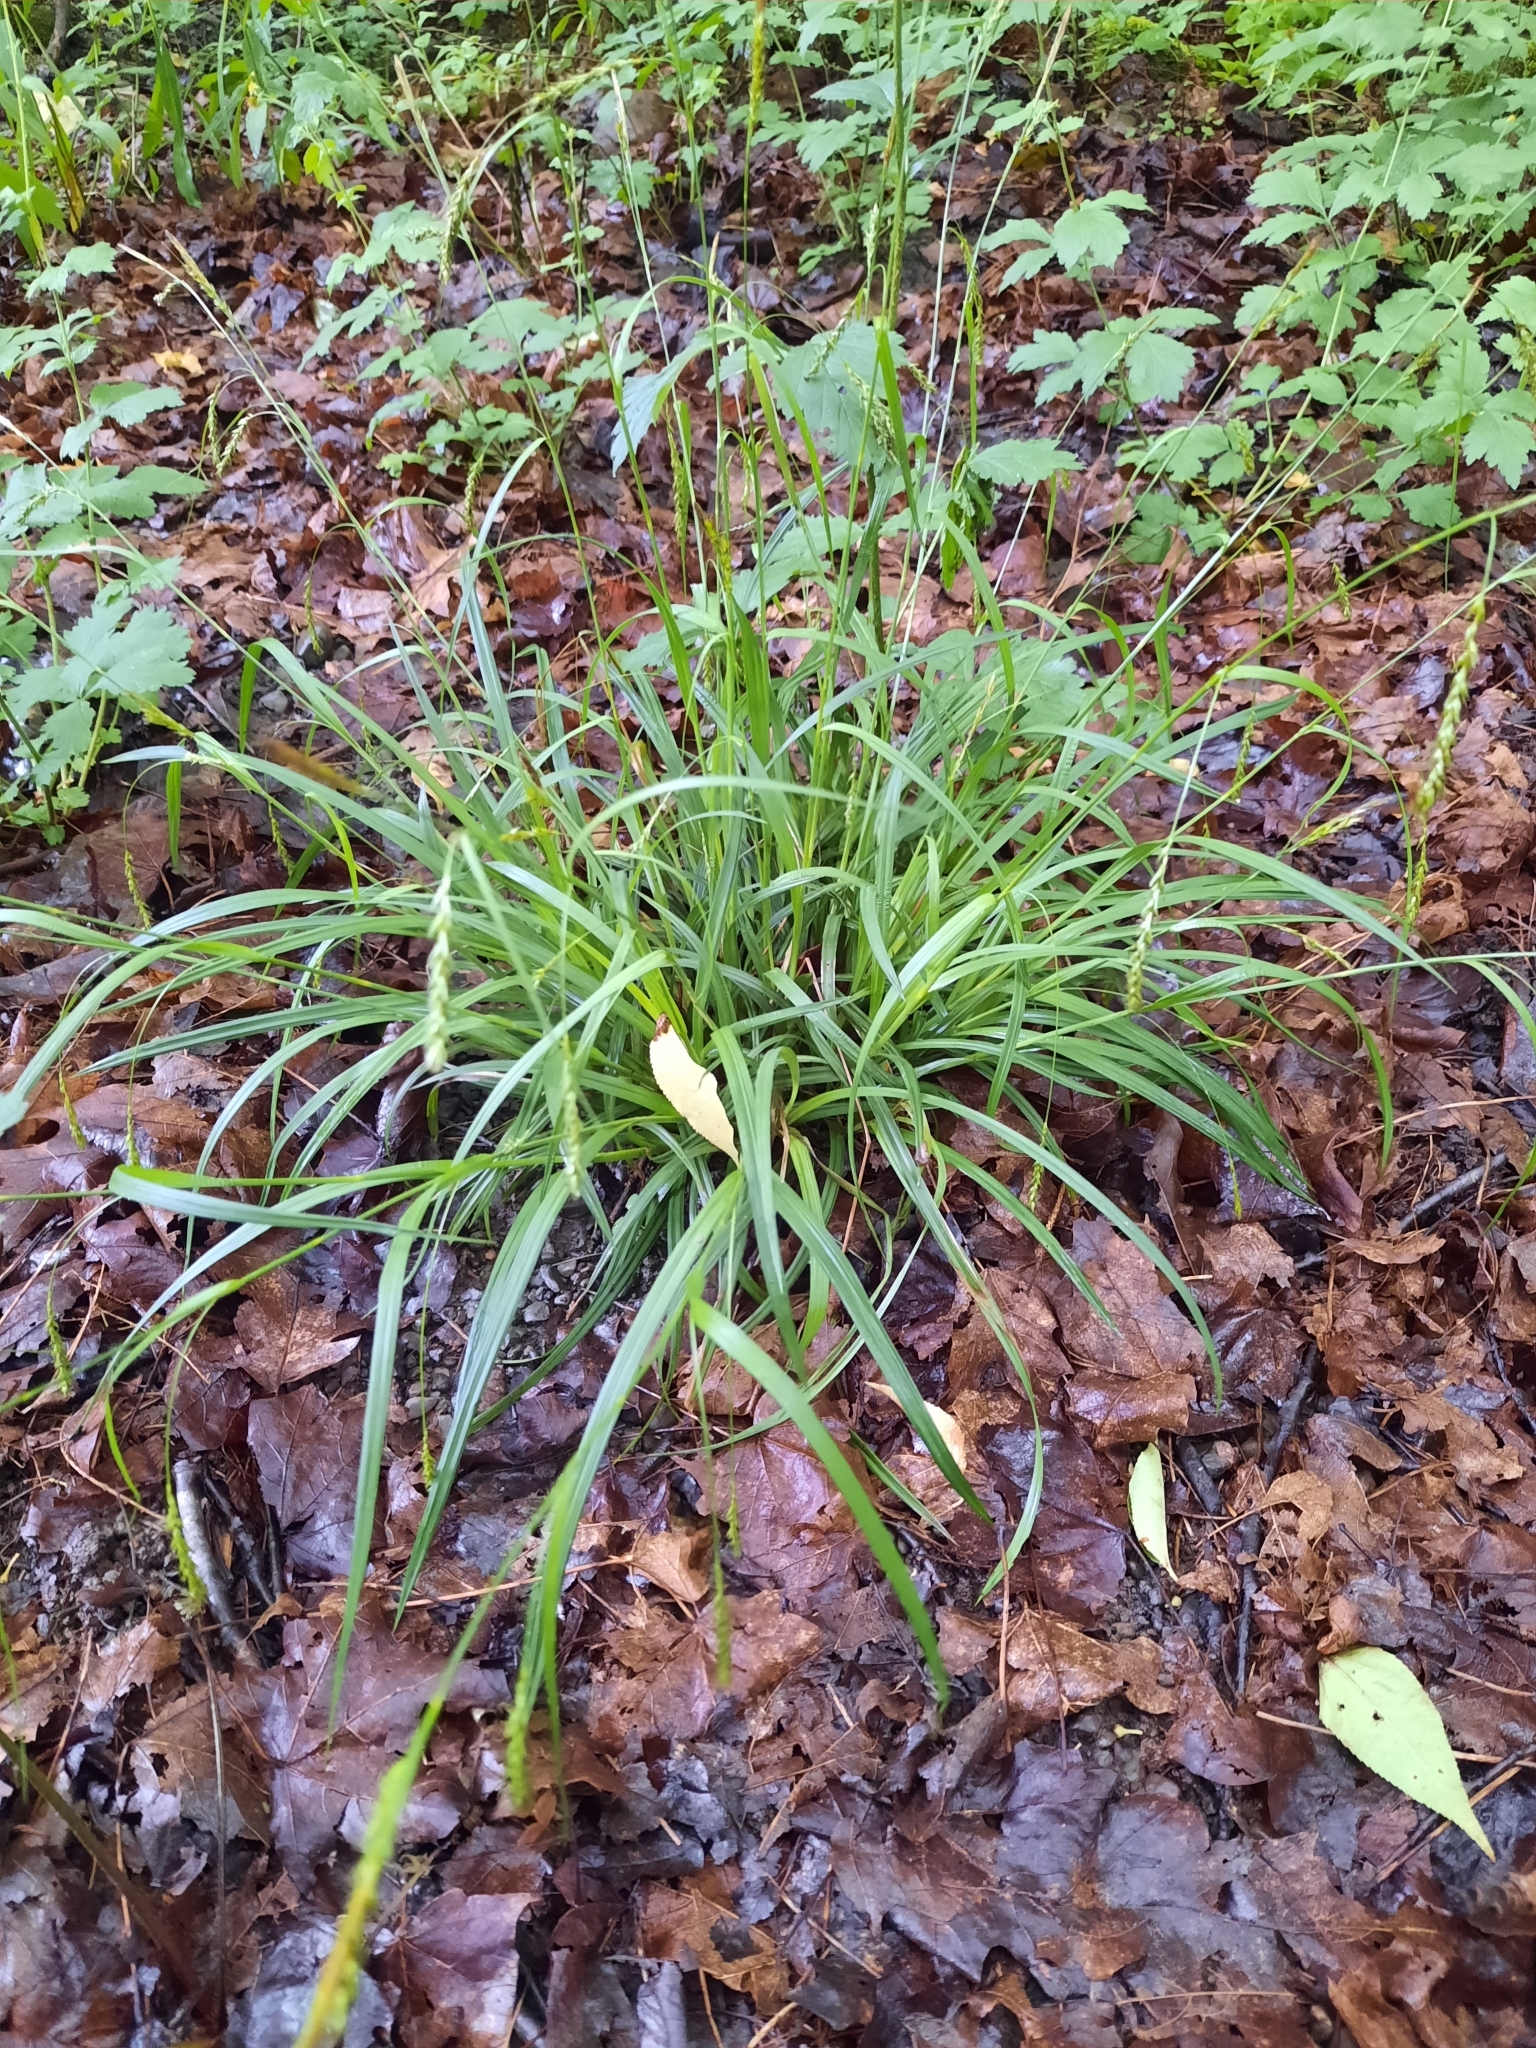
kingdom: Plantae
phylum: Tracheophyta
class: Liliopsida
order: Poales
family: Cyperaceae
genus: Carex
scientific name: Carex sylvatica
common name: Wood-sedge
